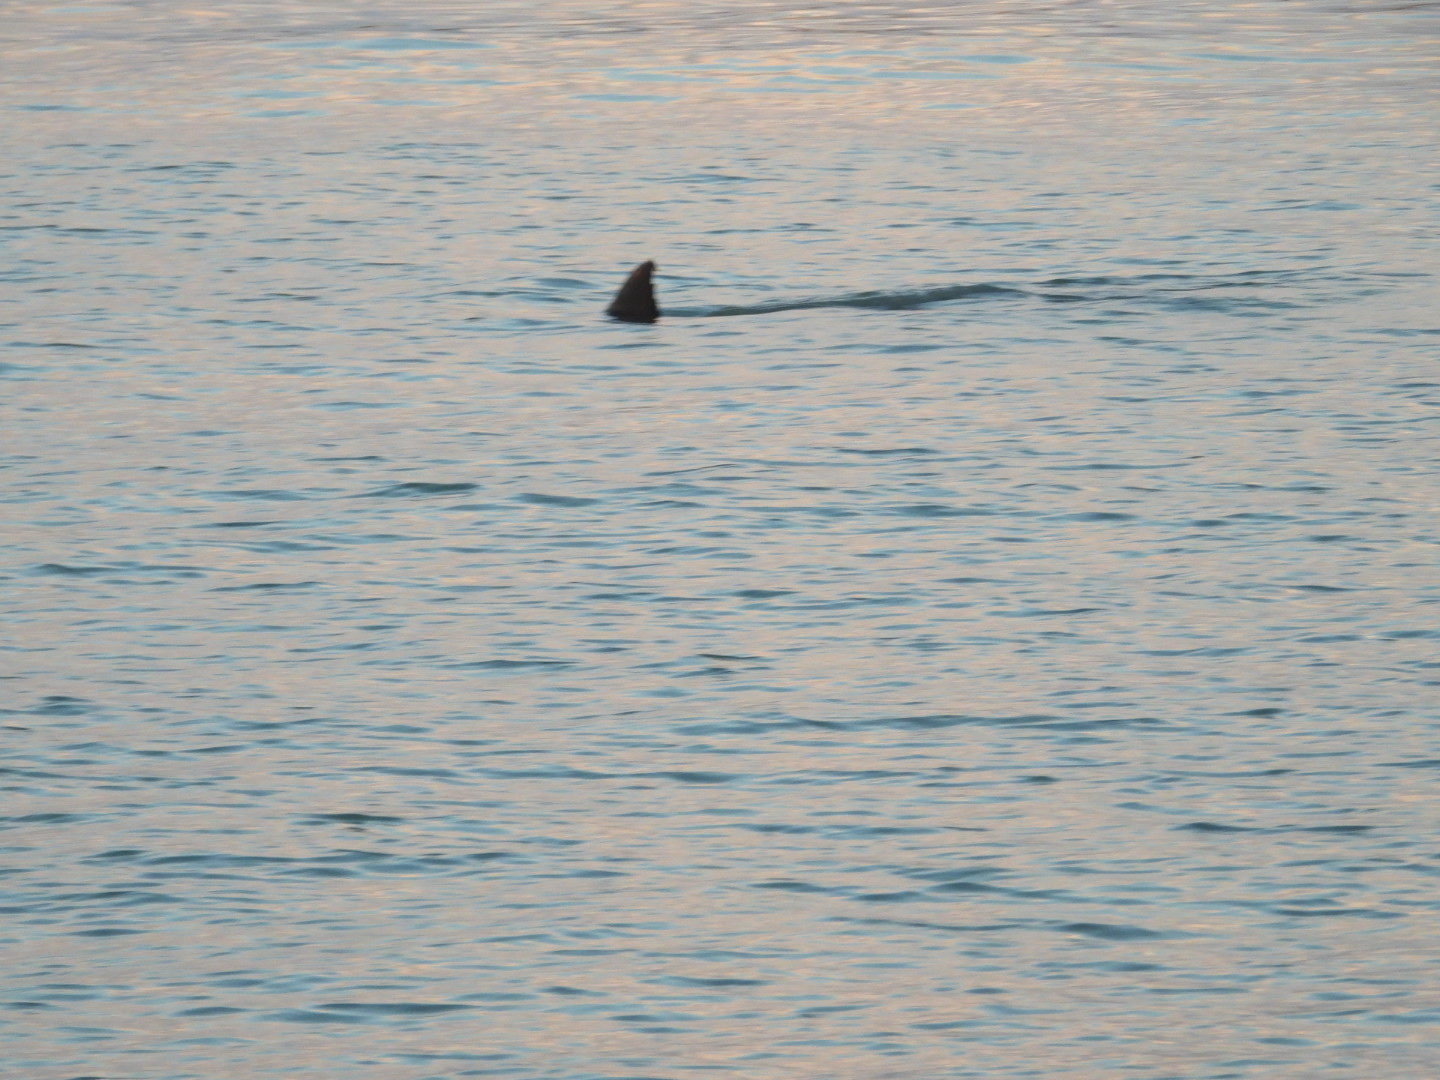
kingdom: Animalia
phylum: Chordata
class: Mammalia
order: Cetacea
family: Delphinidae
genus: Tursiops
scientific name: Tursiops truncatus
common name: Bottlenose dolphin
